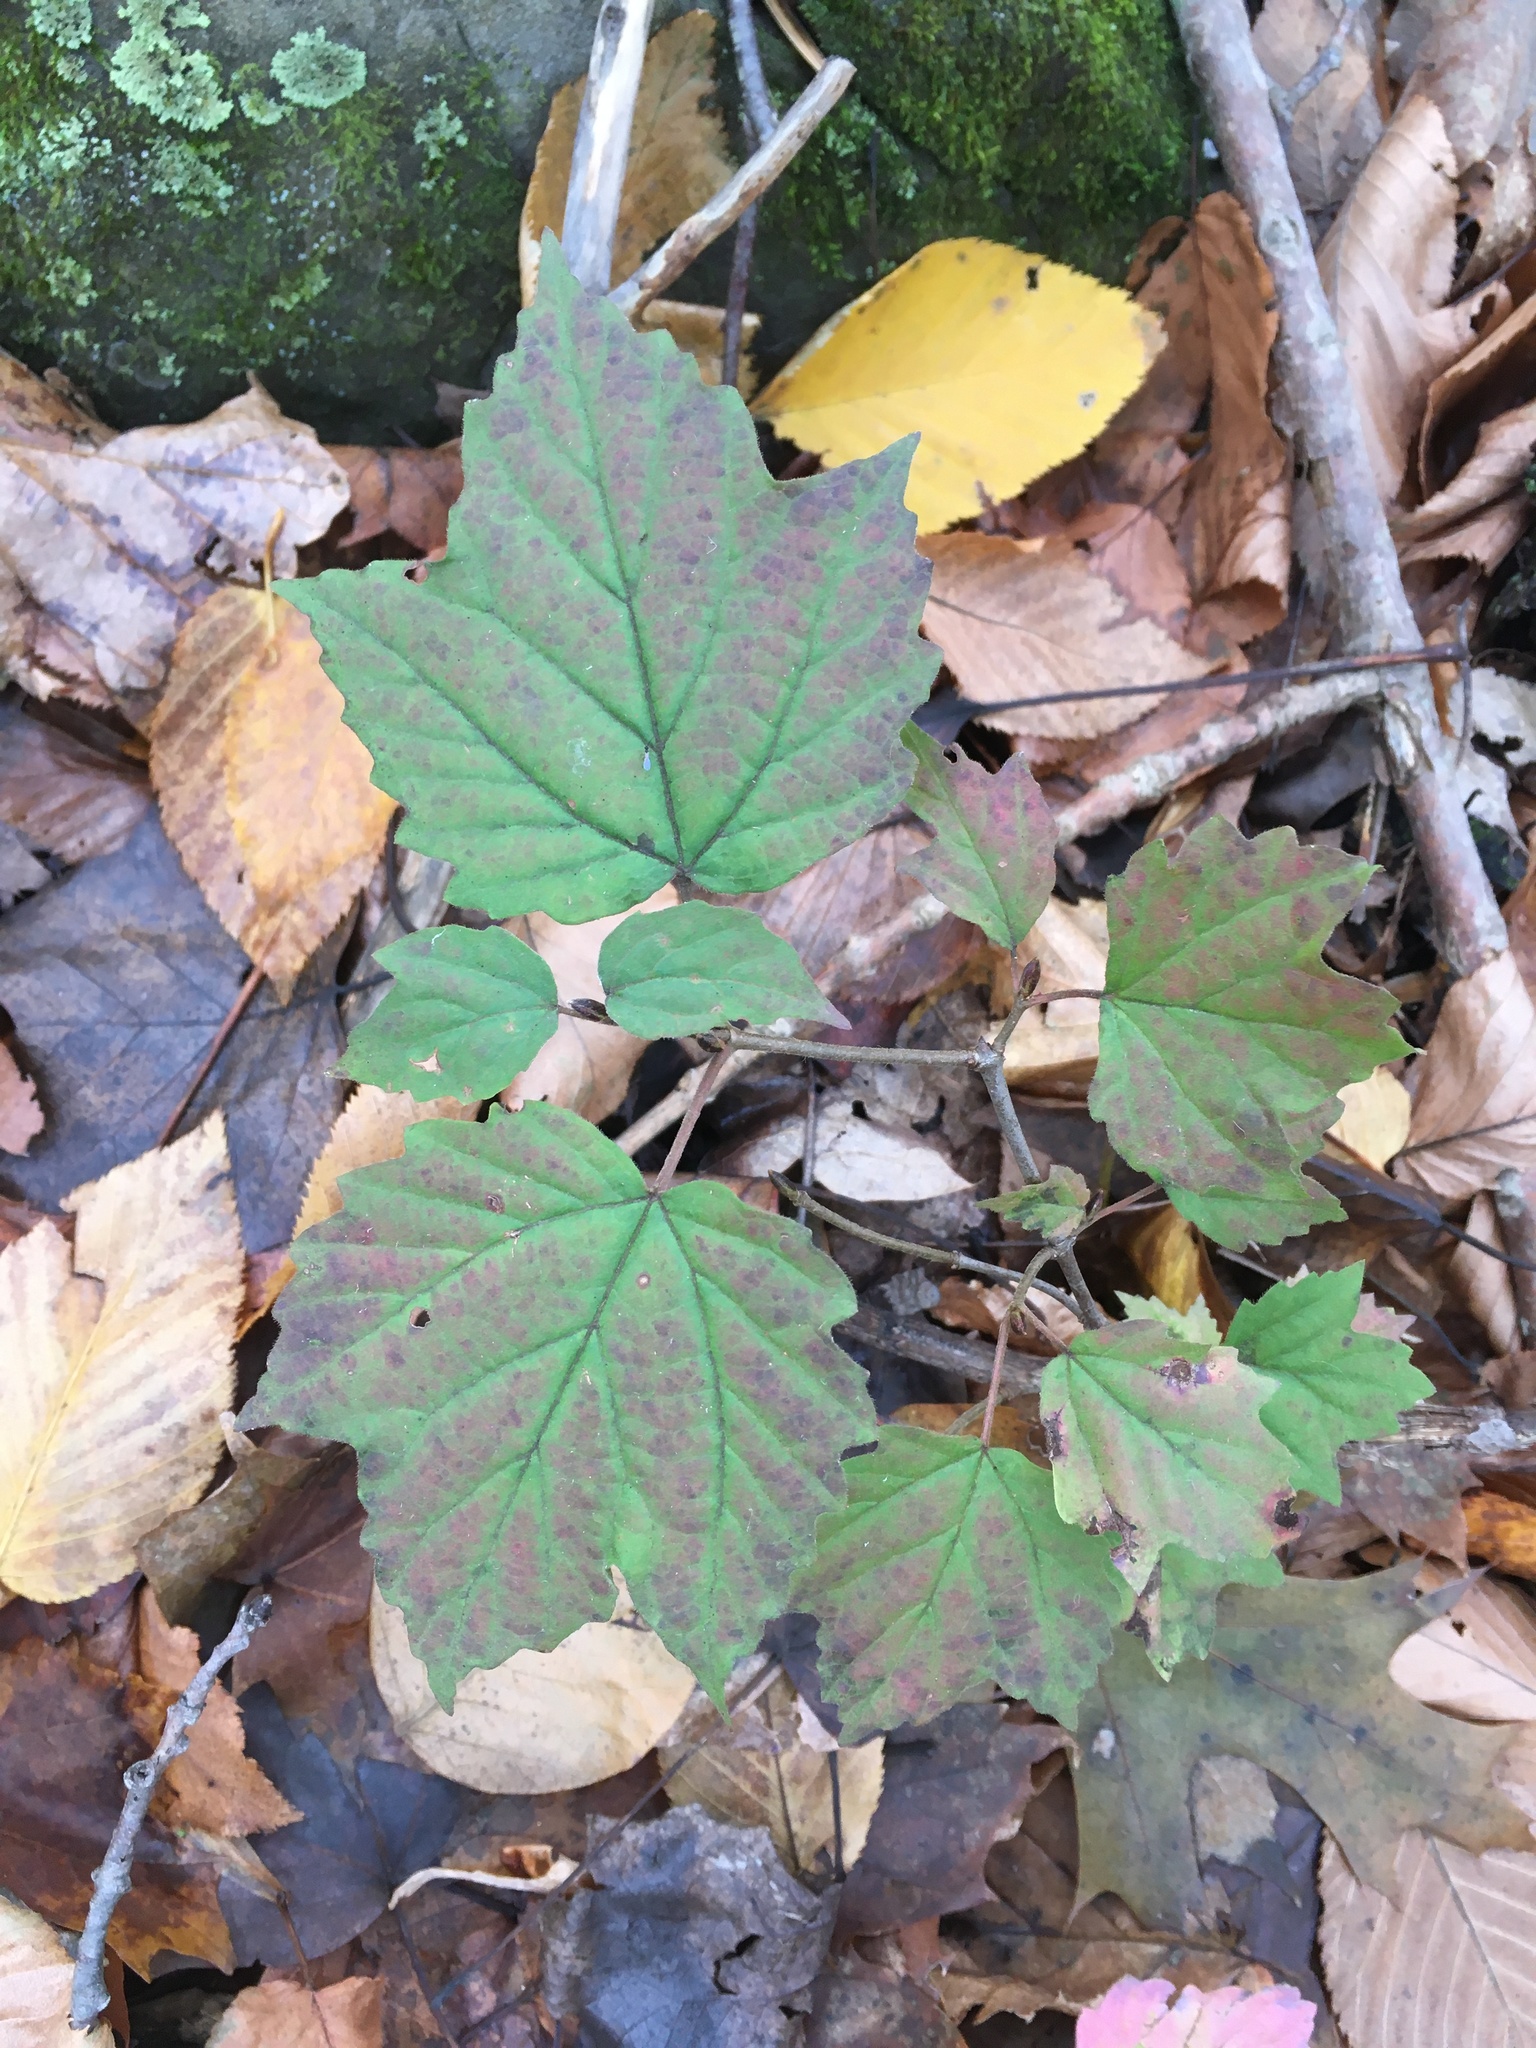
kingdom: Plantae
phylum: Tracheophyta
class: Magnoliopsida
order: Dipsacales
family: Viburnaceae
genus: Viburnum
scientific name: Viburnum acerifolium
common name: Dockmackie
